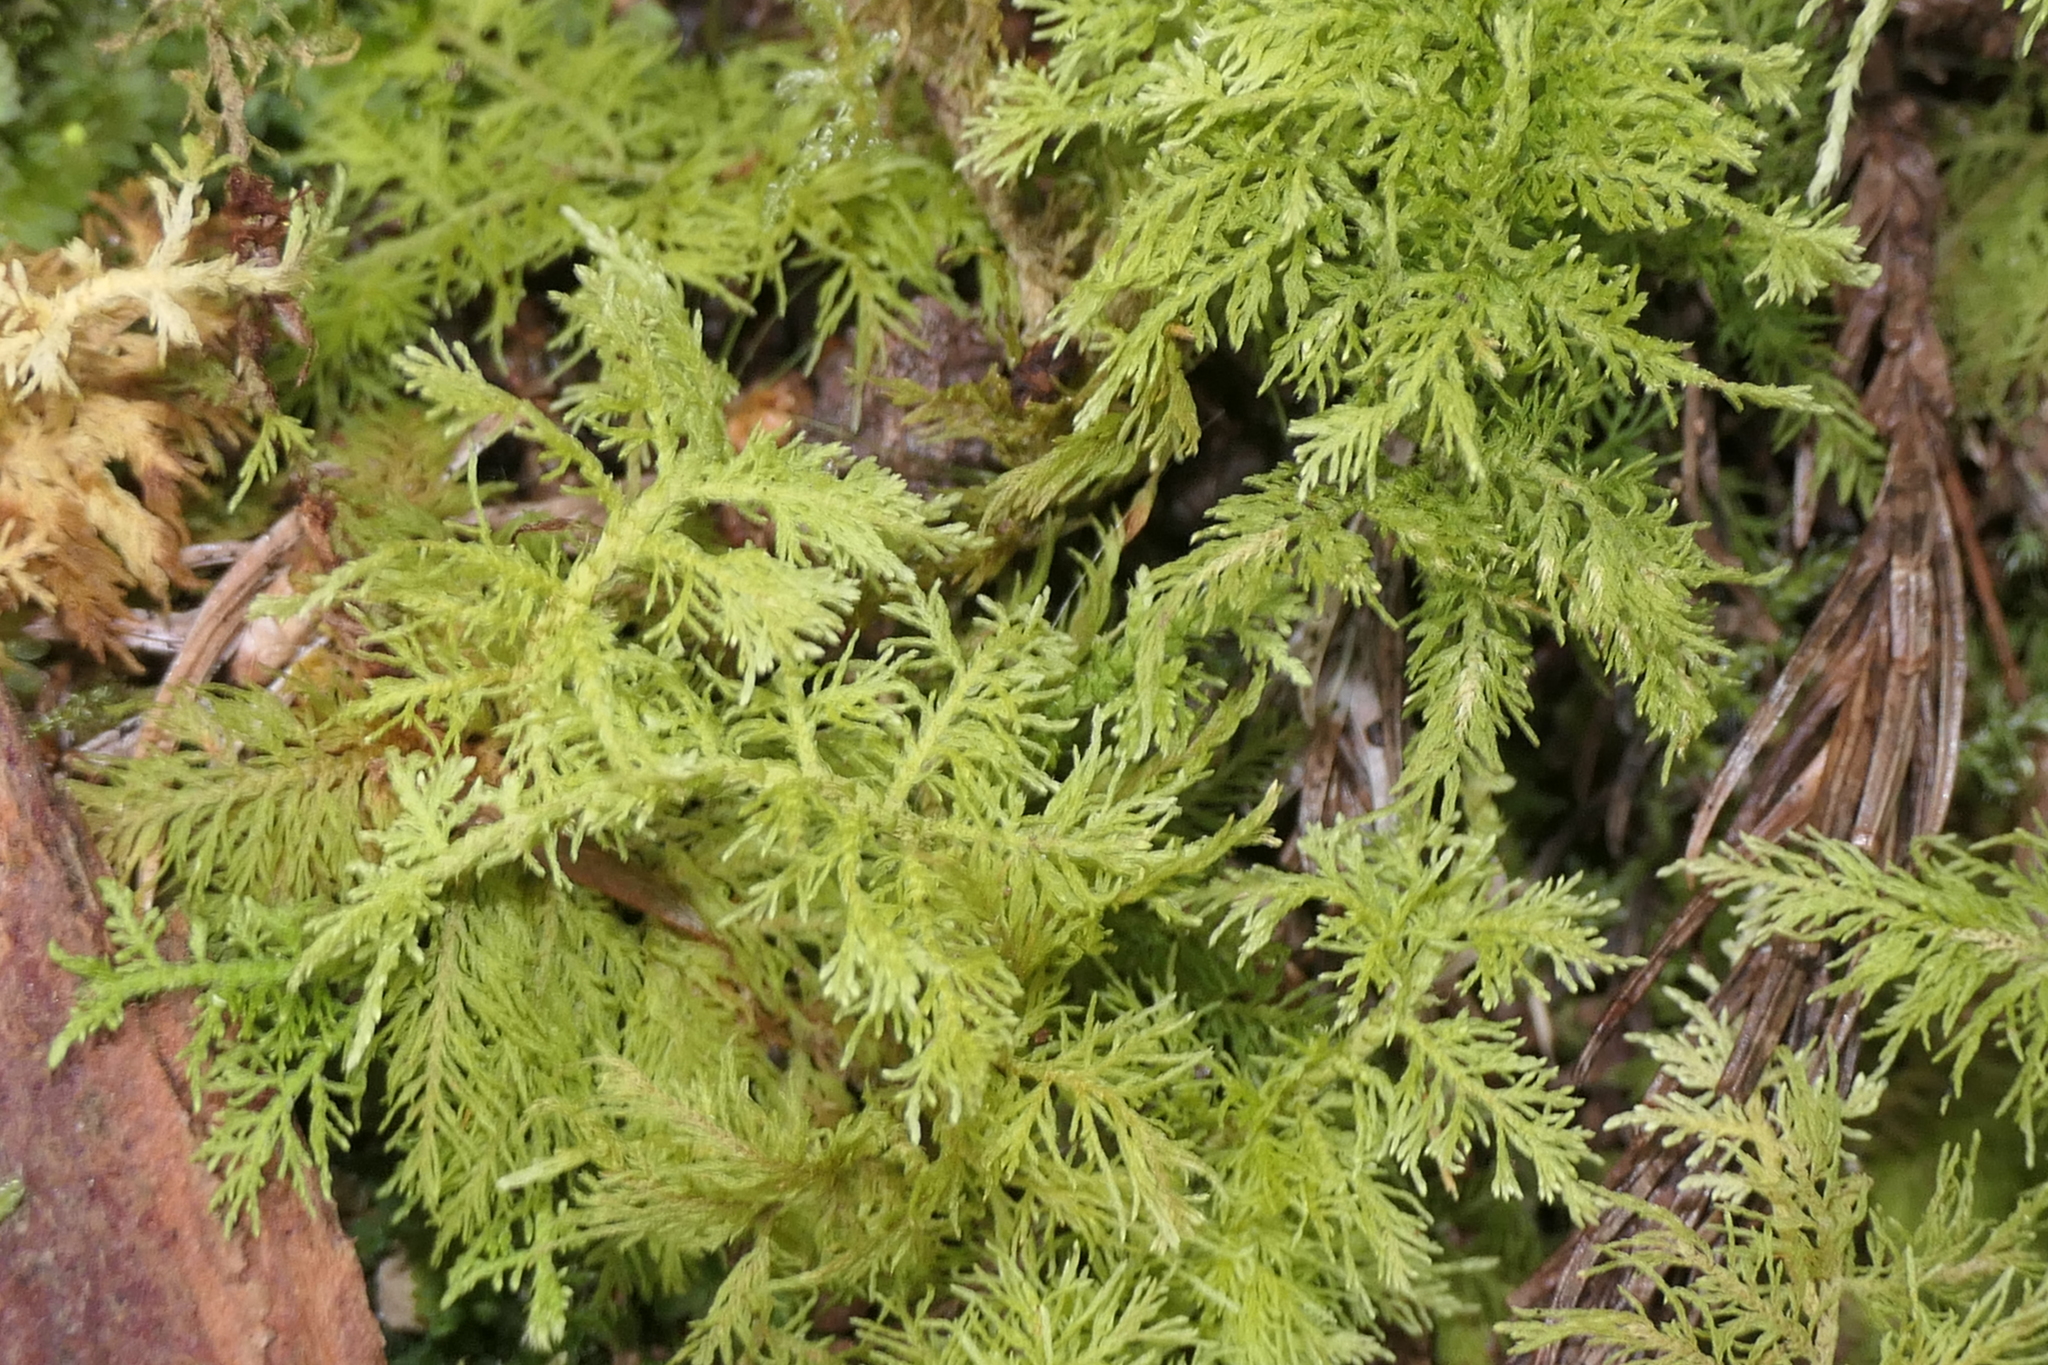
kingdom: Plantae
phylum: Bryophyta
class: Bryopsida
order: Hypnales
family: Thuidiaceae
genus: Thuidium
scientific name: Thuidium tamariscinum
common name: Common tamarisk-moss
